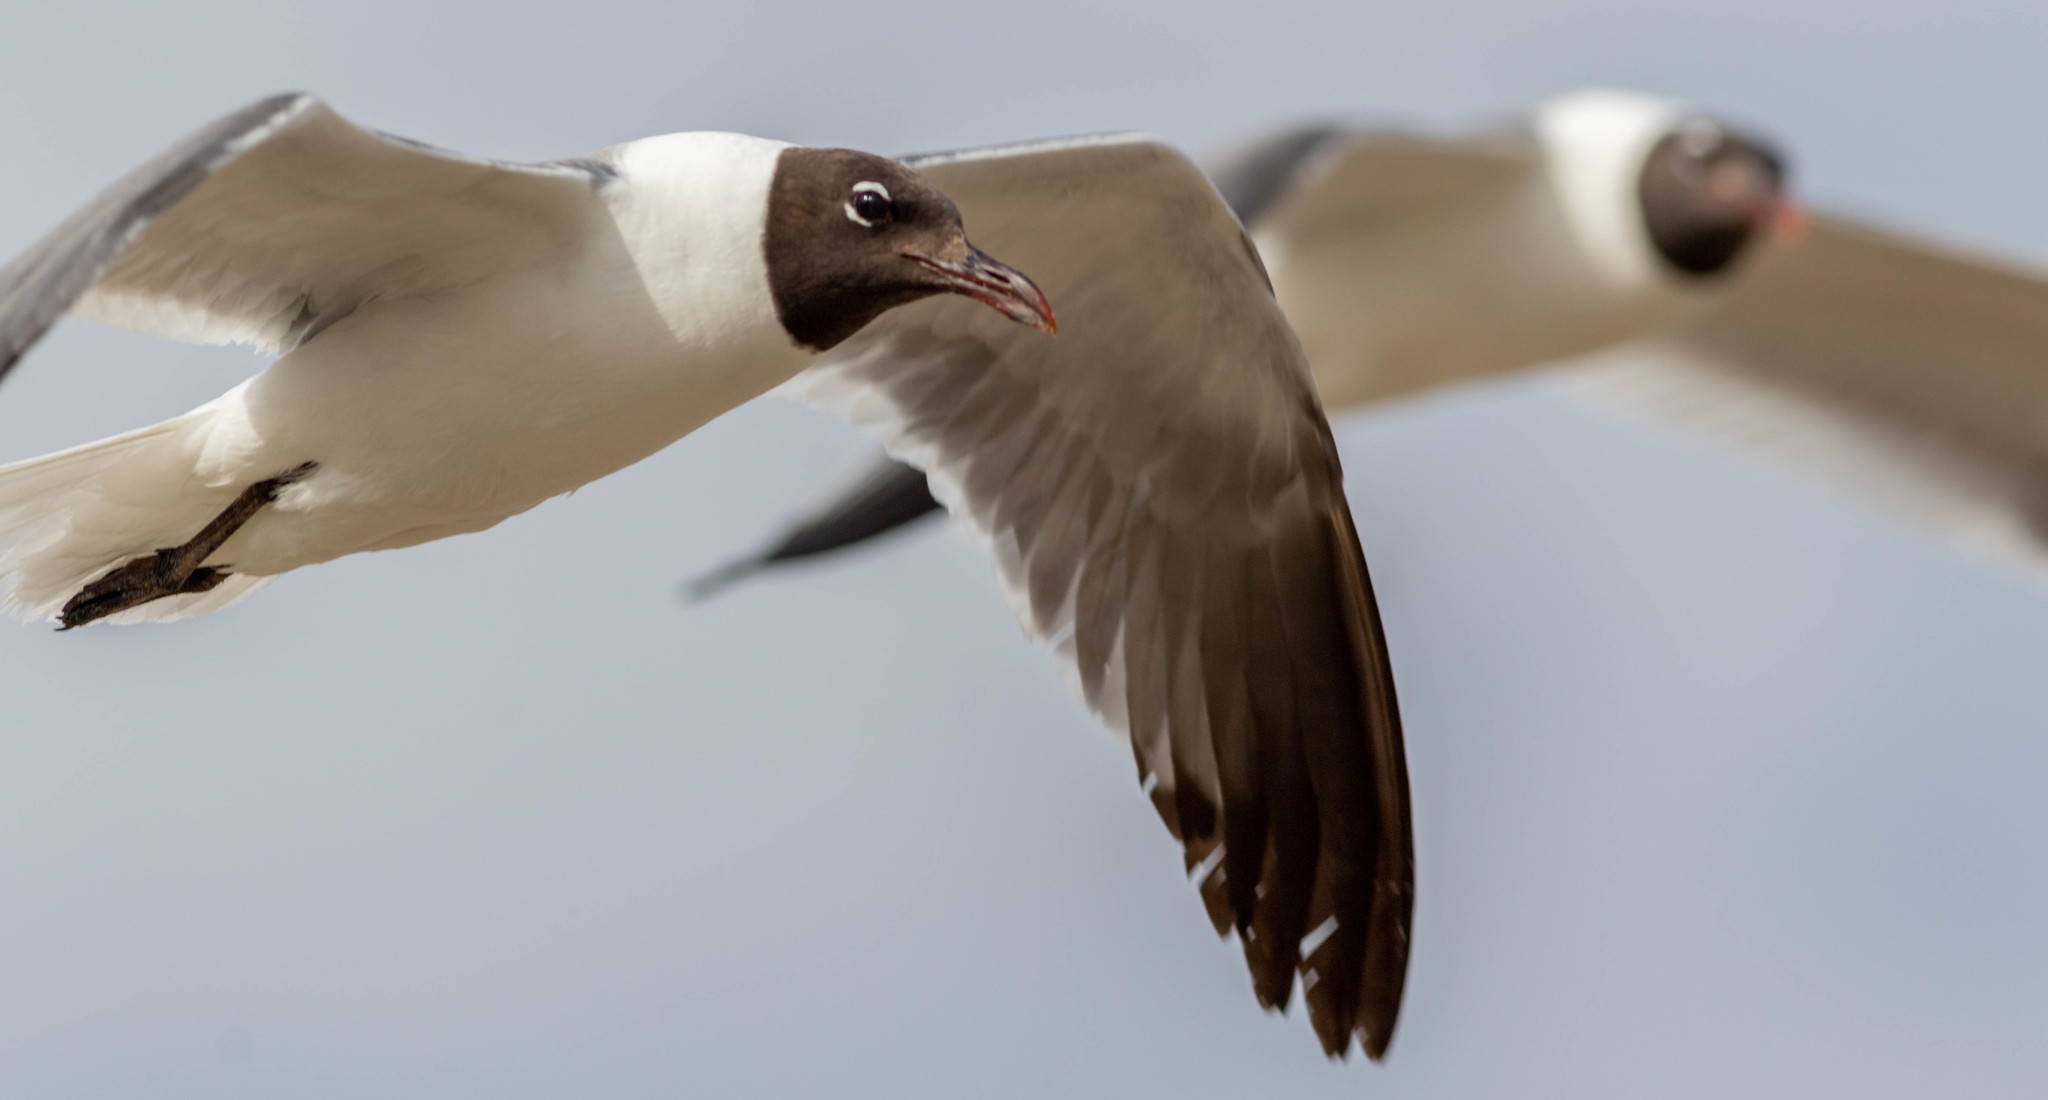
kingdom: Animalia
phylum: Chordata
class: Aves
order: Charadriiformes
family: Laridae
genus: Leucophaeus
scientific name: Leucophaeus atricilla
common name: Laughing gull
